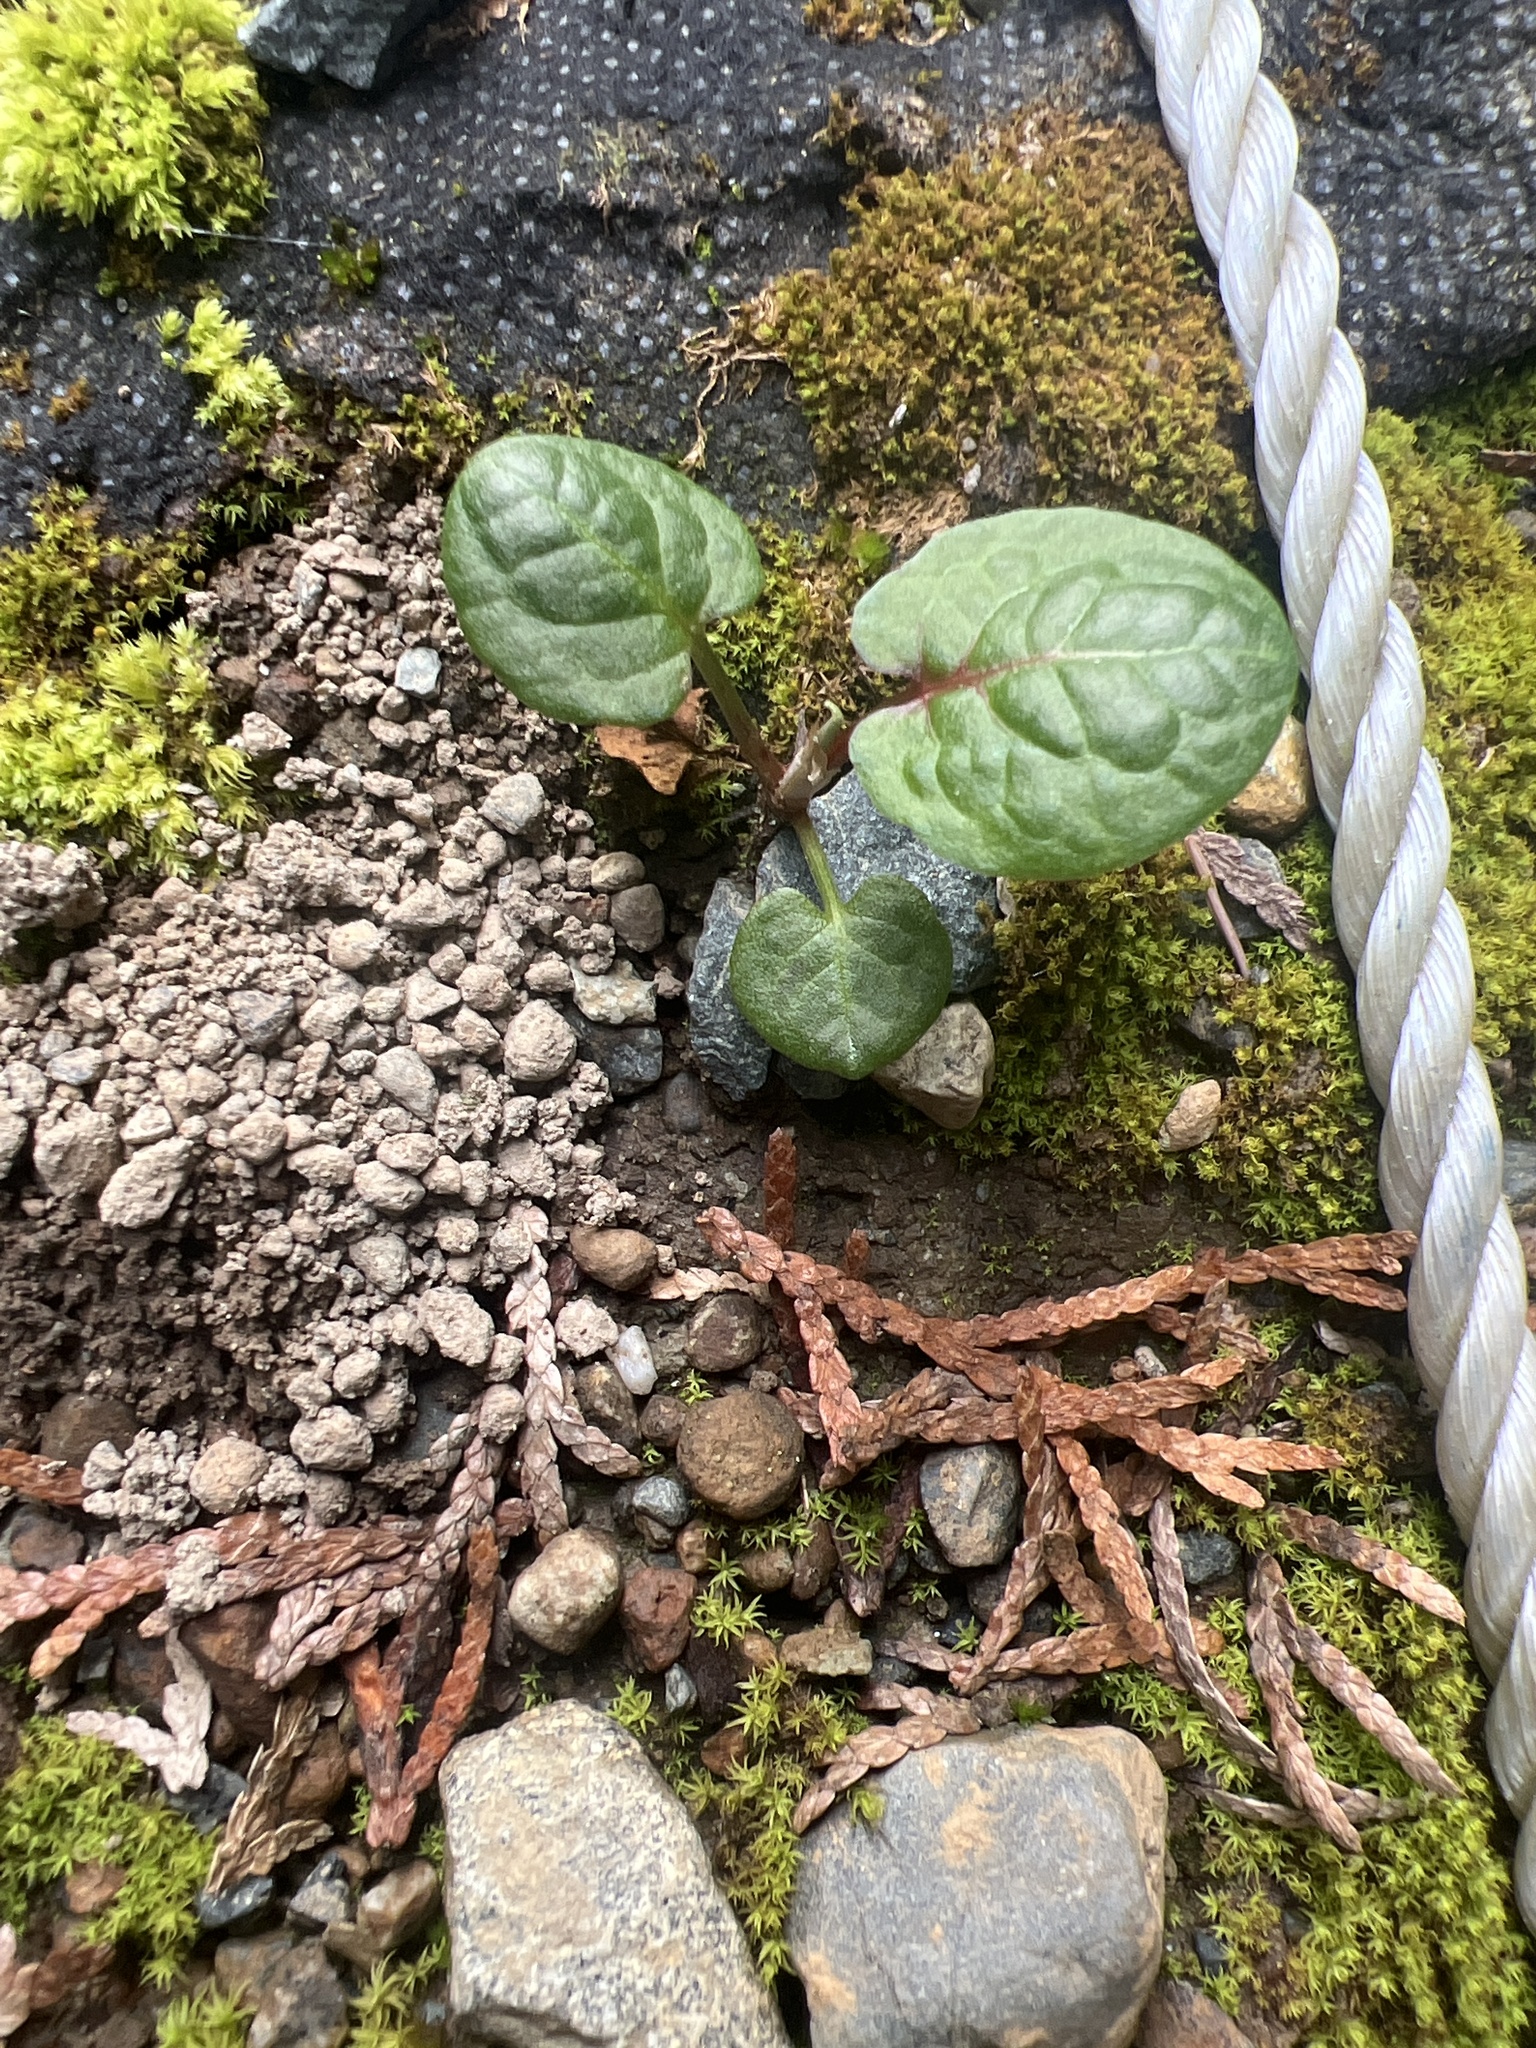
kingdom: Plantae
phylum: Tracheophyta
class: Magnoliopsida
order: Caryophyllales
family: Polygonaceae
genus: Rumex
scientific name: Rumex obtusifolius
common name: Bitter dock
